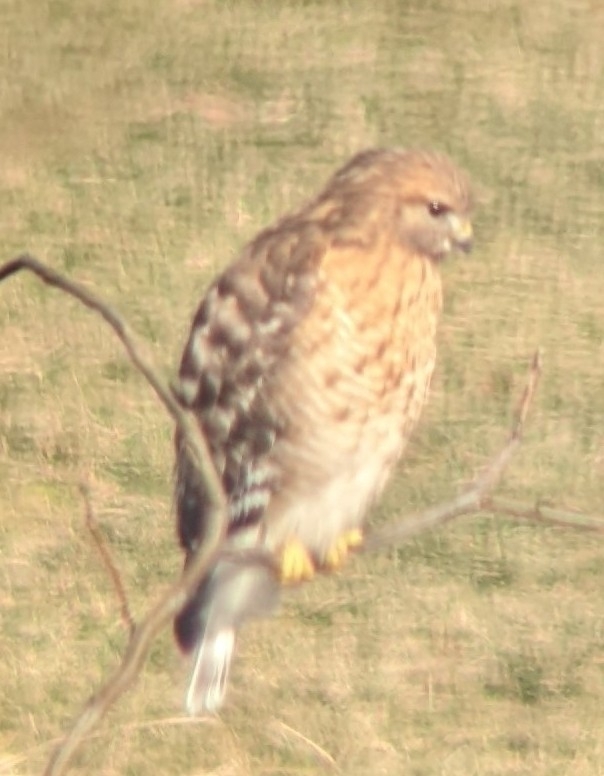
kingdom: Animalia
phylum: Chordata
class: Aves
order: Accipitriformes
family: Accipitridae
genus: Buteo
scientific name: Buteo lineatus
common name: Red-shouldered hawk
